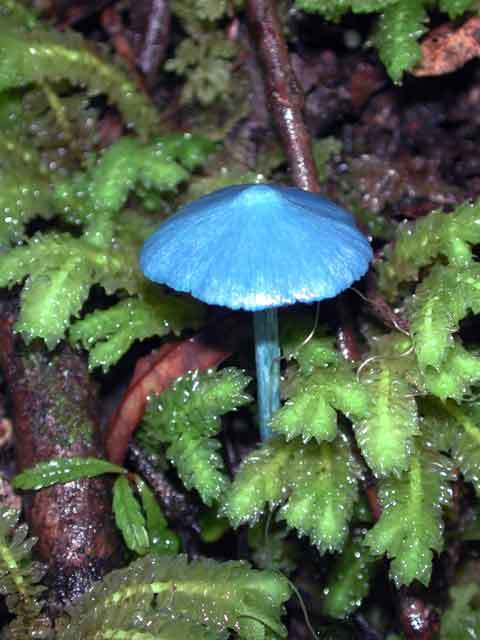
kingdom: Fungi
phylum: Basidiomycota
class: Agaricomycetes
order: Agaricales
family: Entolomataceae
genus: Entoloma
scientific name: Entoloma hochstetteri
